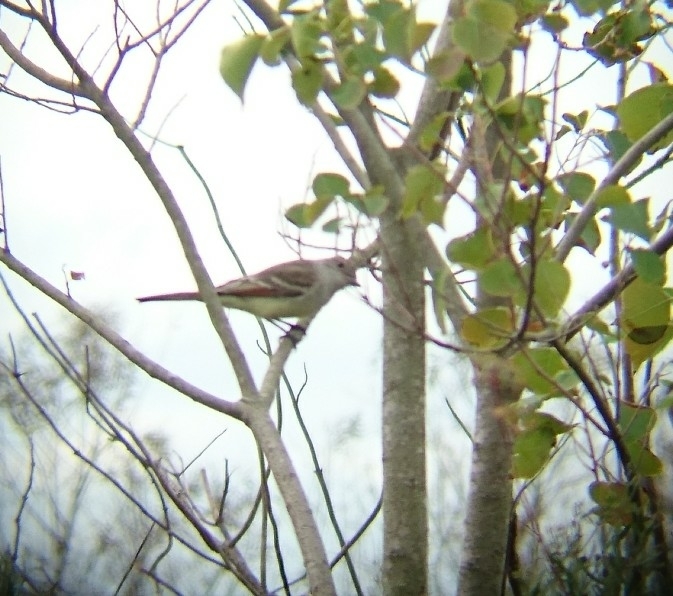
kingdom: Animalia
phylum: Chordata
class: Aves
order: Passeriformes
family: Tyrannidae
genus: Myiarchus
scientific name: Myiarchus cinerascens
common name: Ash-throated flycatcher
